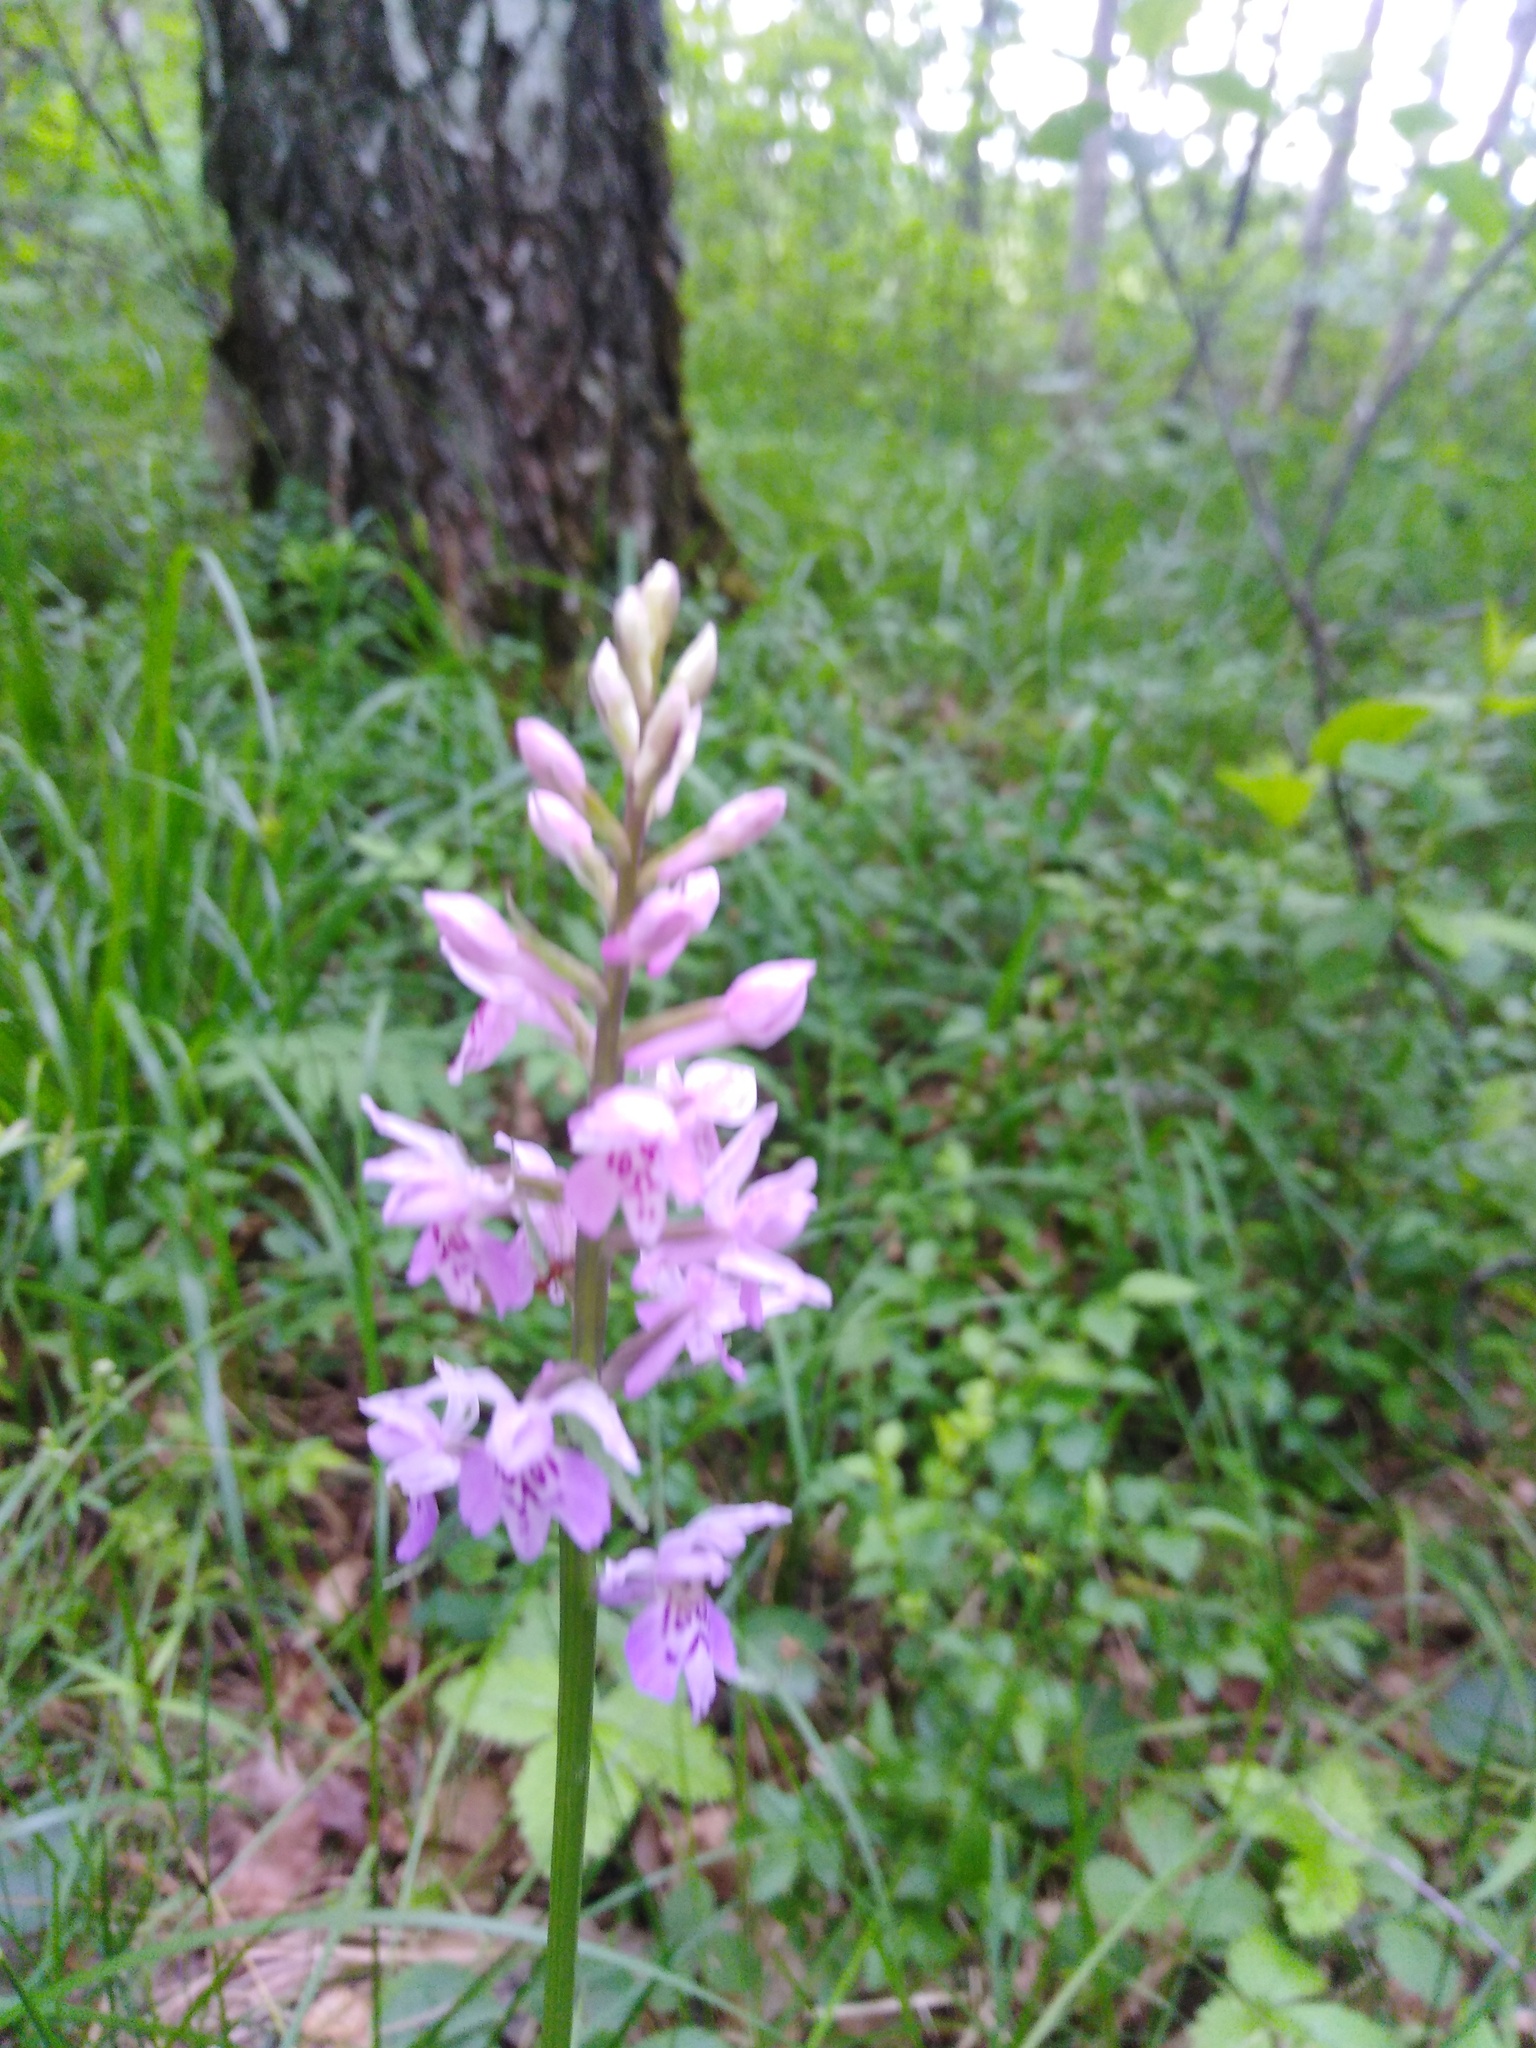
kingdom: Plantae
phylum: Tracheophyta
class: Liliopsida
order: Asparagales
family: Orchidaceae
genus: Dactylorhiza
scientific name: Dactylorhiza maculata
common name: Heath spotted-orchid
